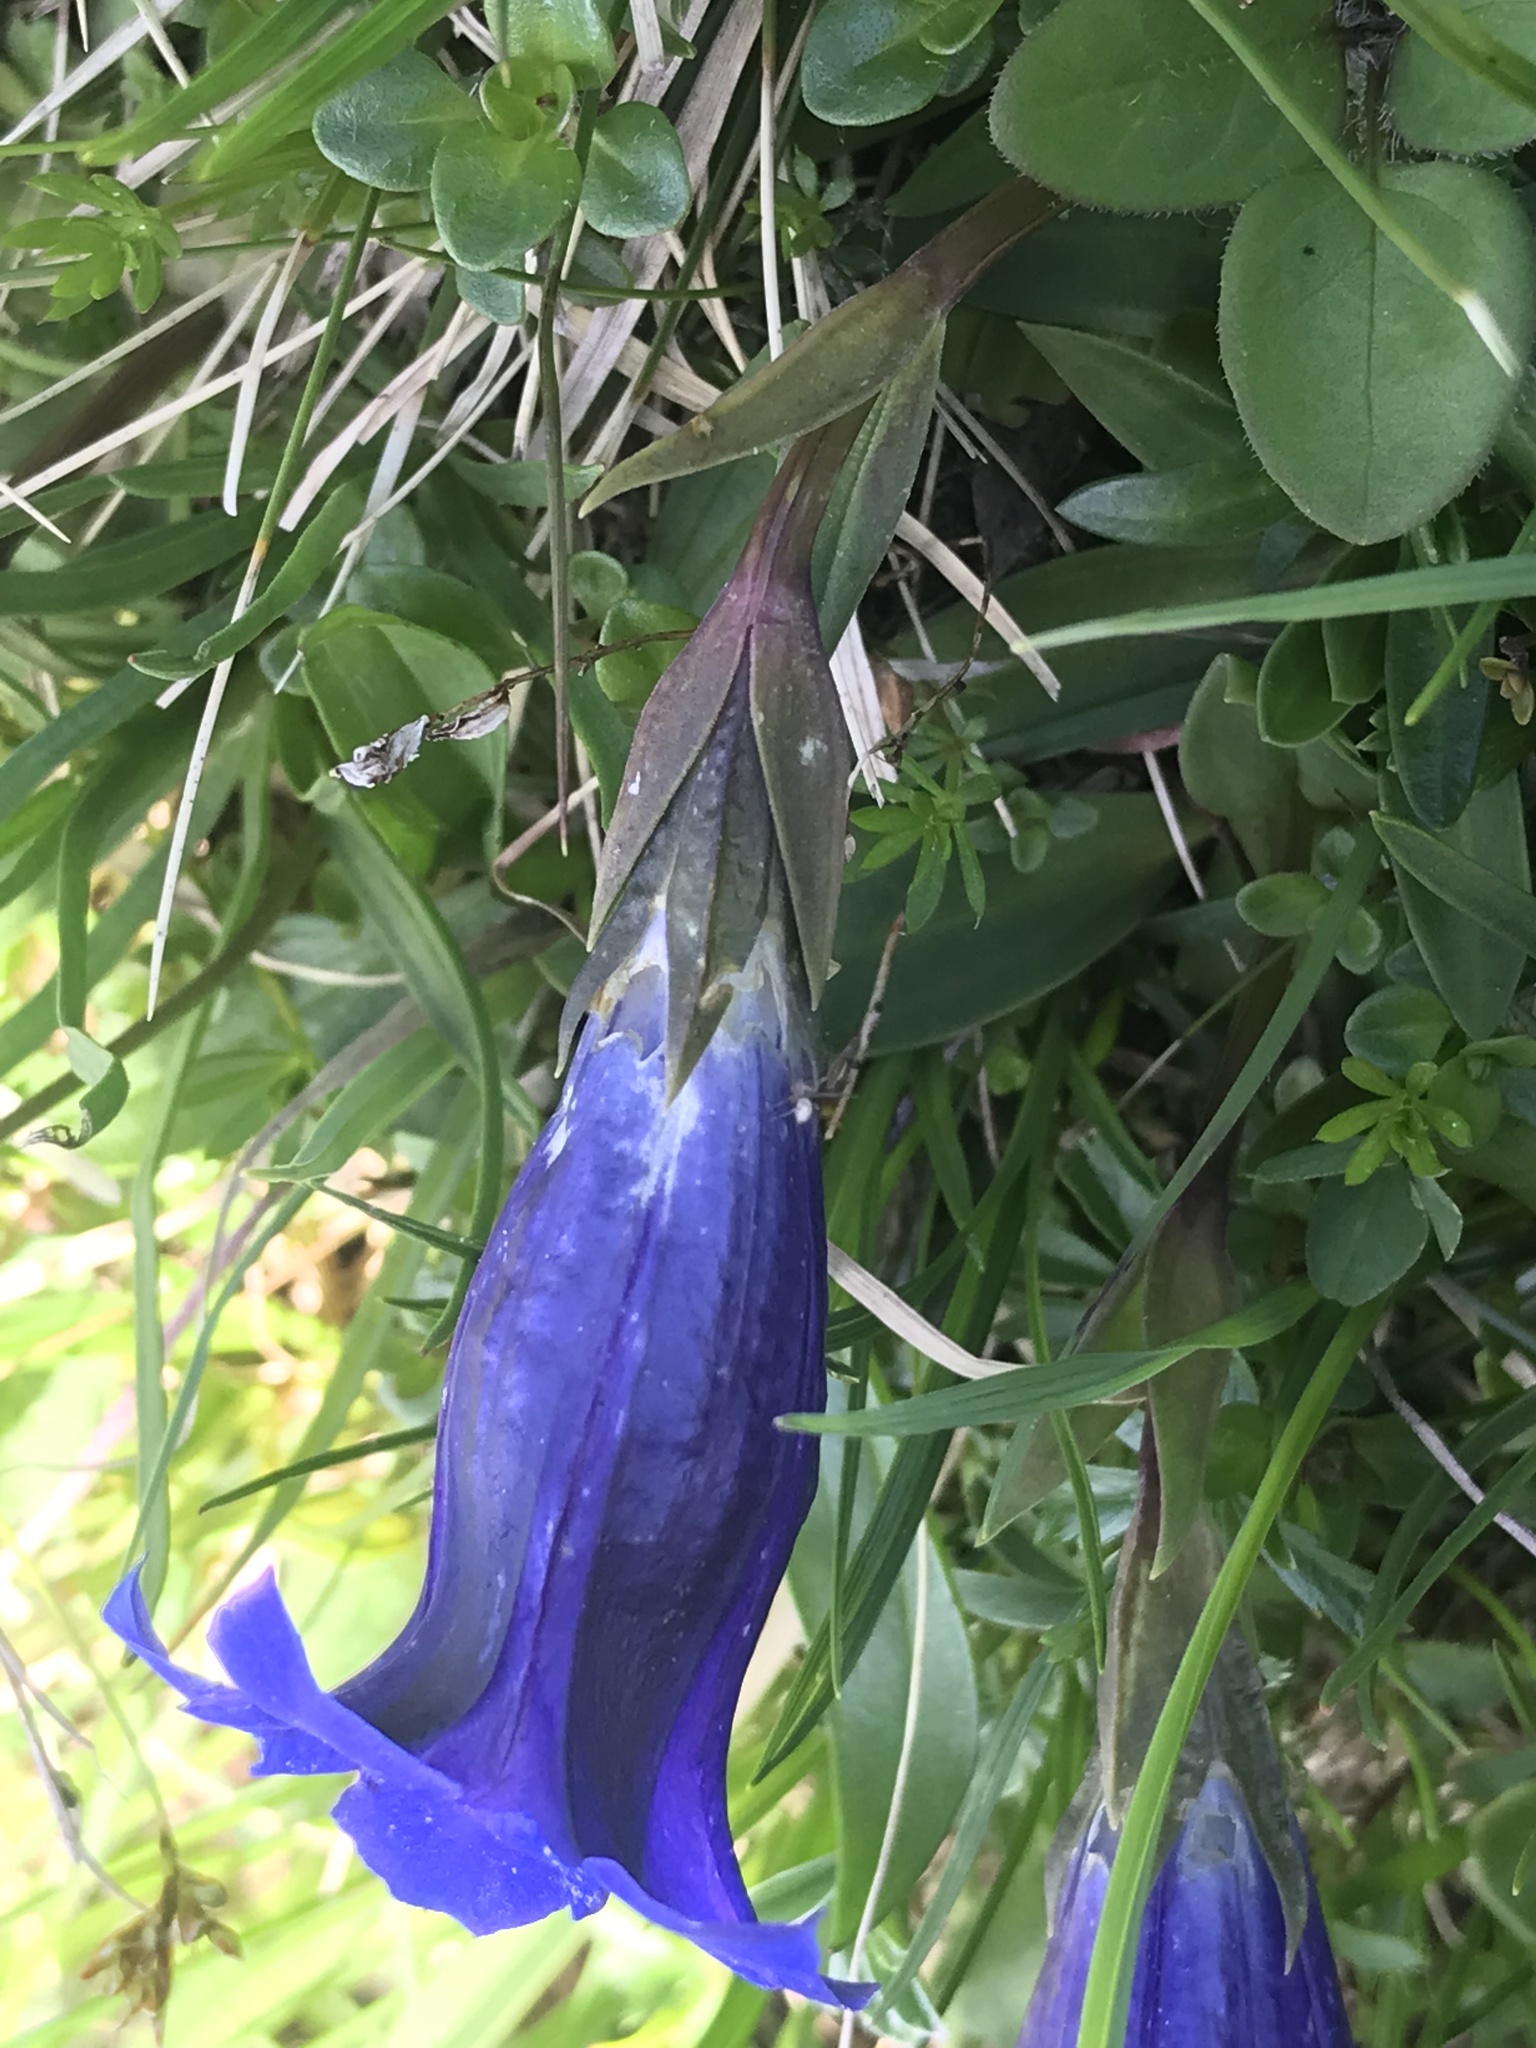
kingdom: Plantae
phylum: Tracheophyta
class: Magnoliopsida
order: Gentianales
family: Gentianaceae
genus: Gentiana
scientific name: Gentiana clusii
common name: Trumpet gentian
